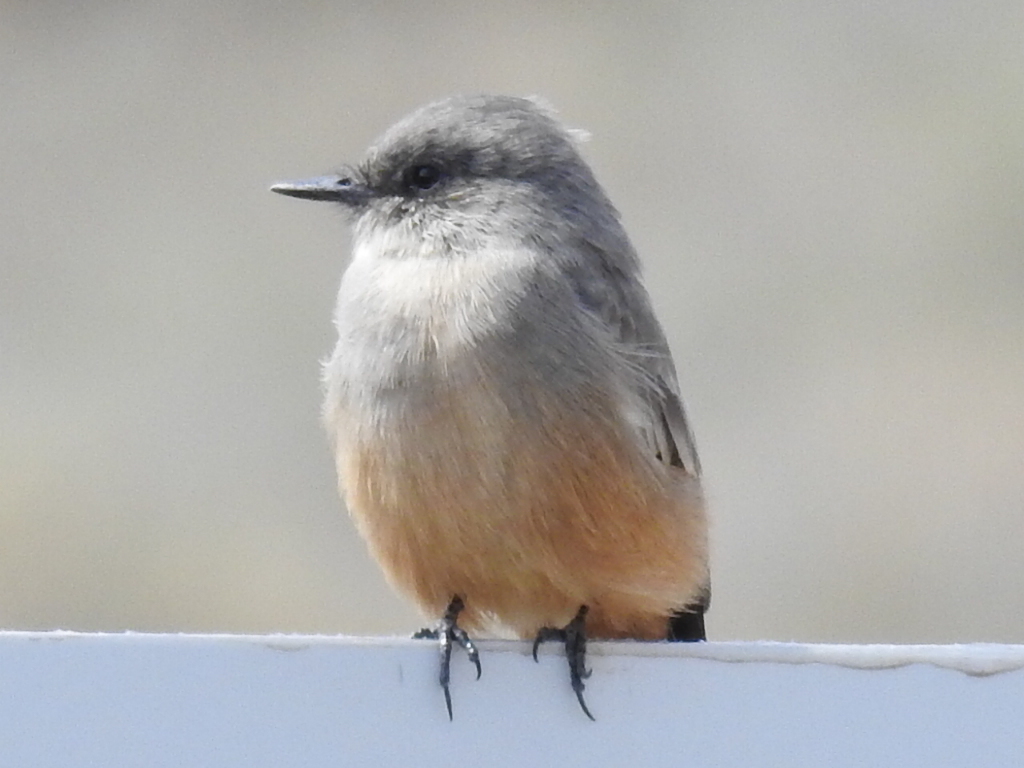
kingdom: Animalia
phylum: Chordata
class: Aves
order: Passeriformes
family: Tyrannidae
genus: Sayornis
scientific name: Sayornis saya
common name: Say's phoebe
